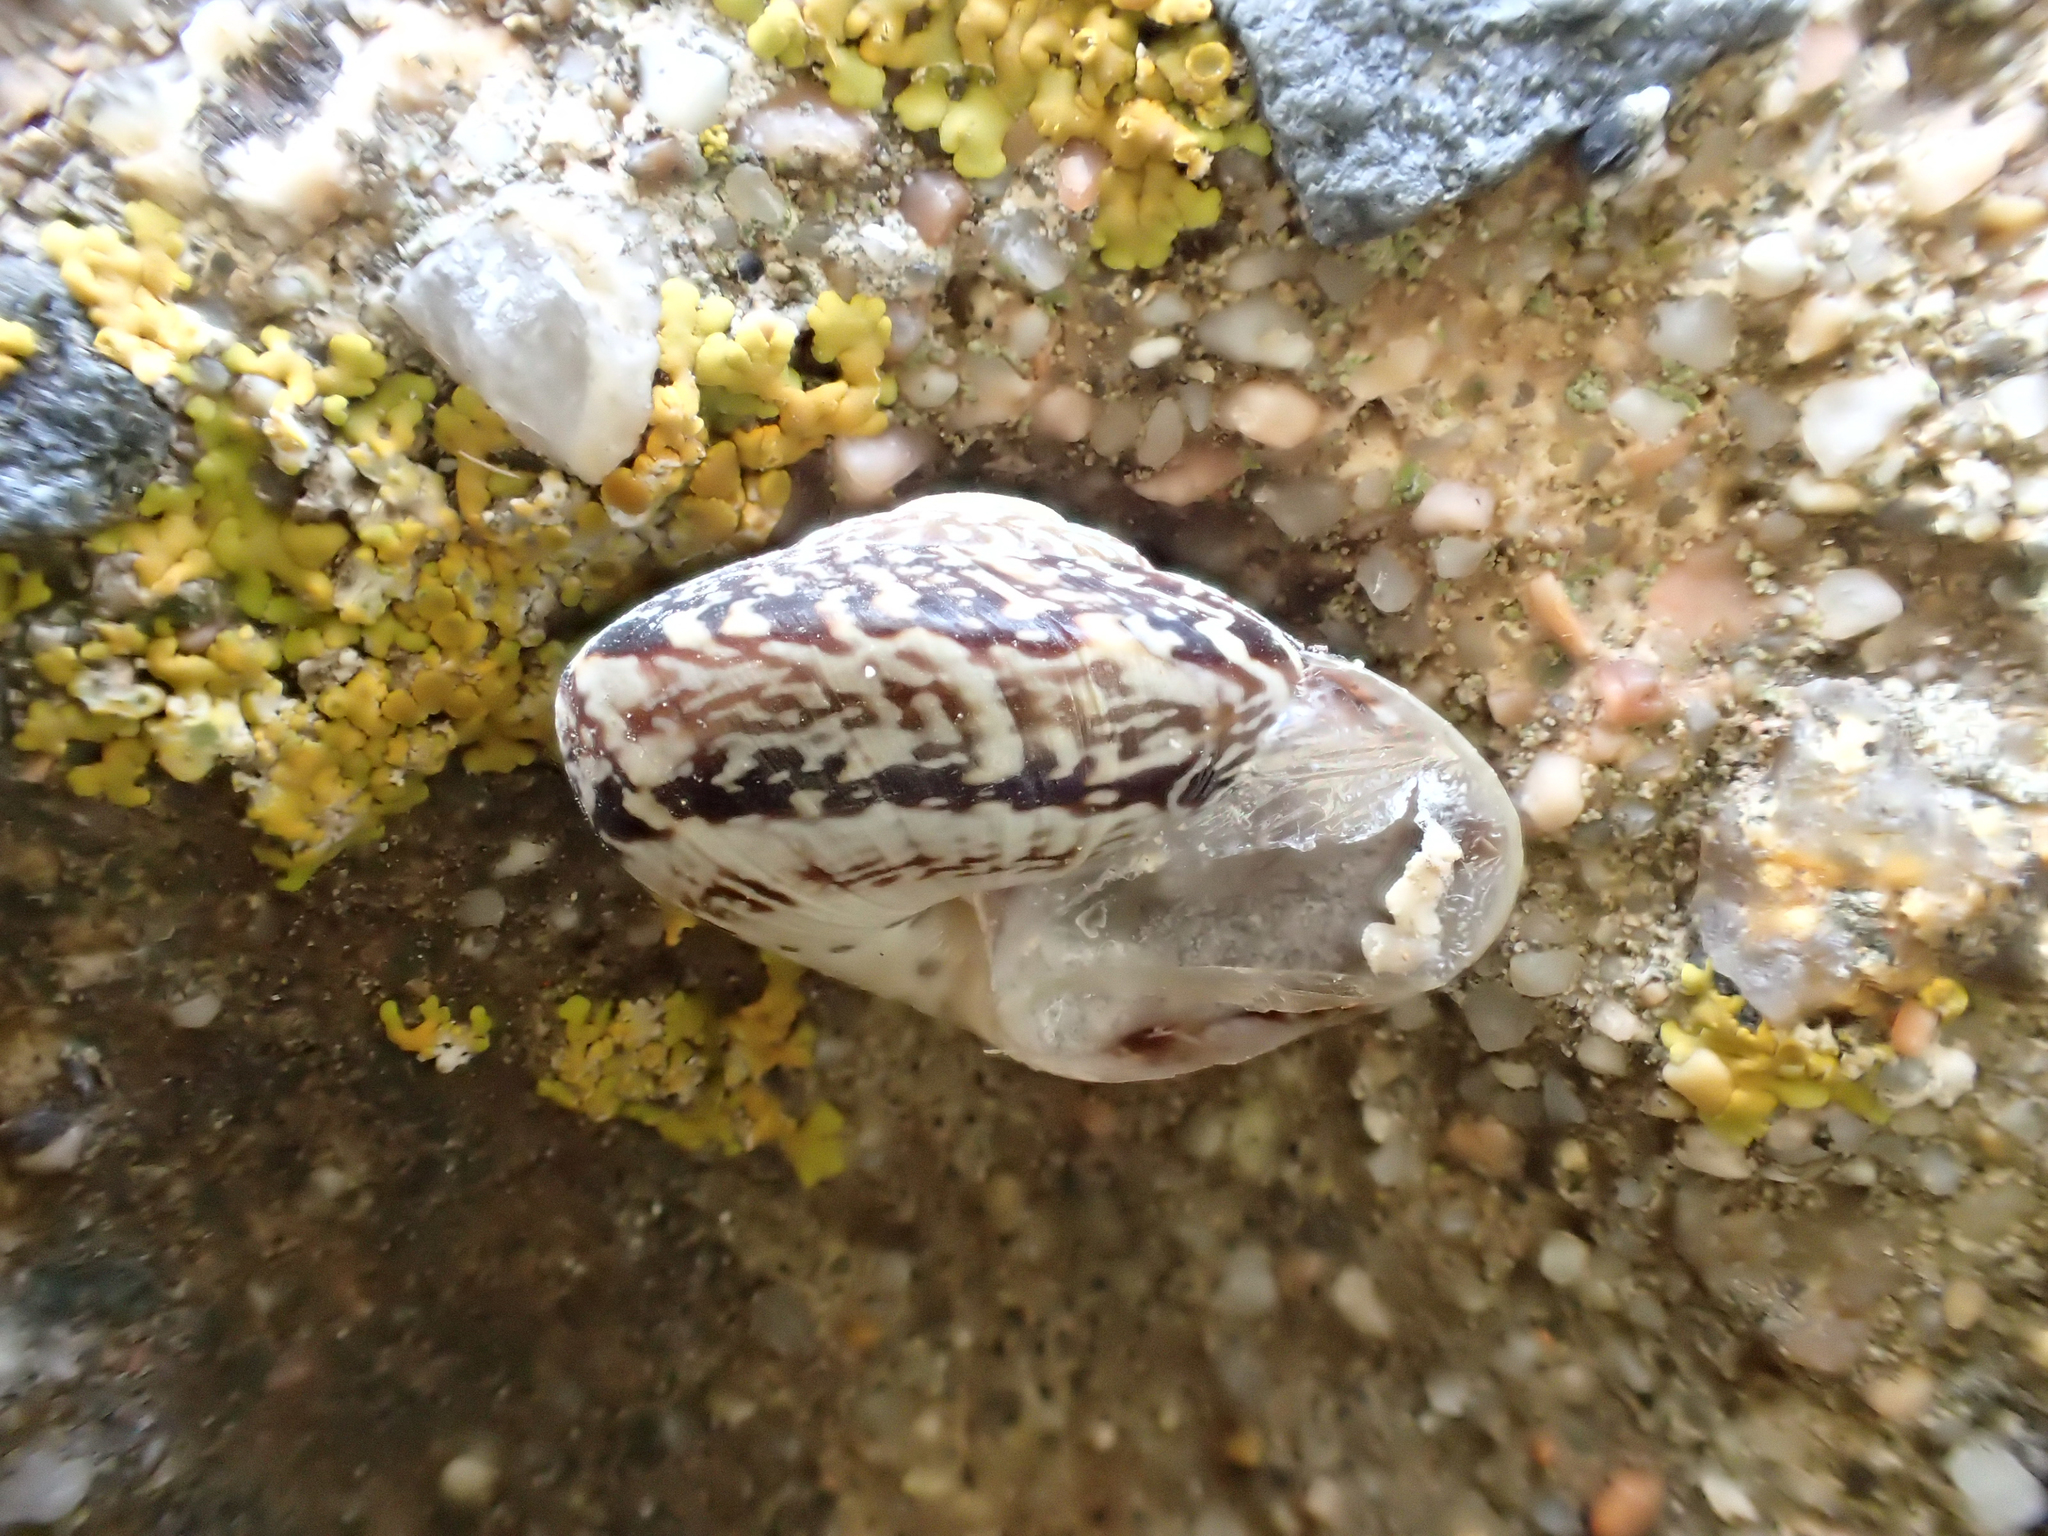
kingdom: Animalia
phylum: Mollusca
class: Gastropoda
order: Stylommatophora
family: Helicidae
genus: Marmorana
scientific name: Marmorana serpentina
